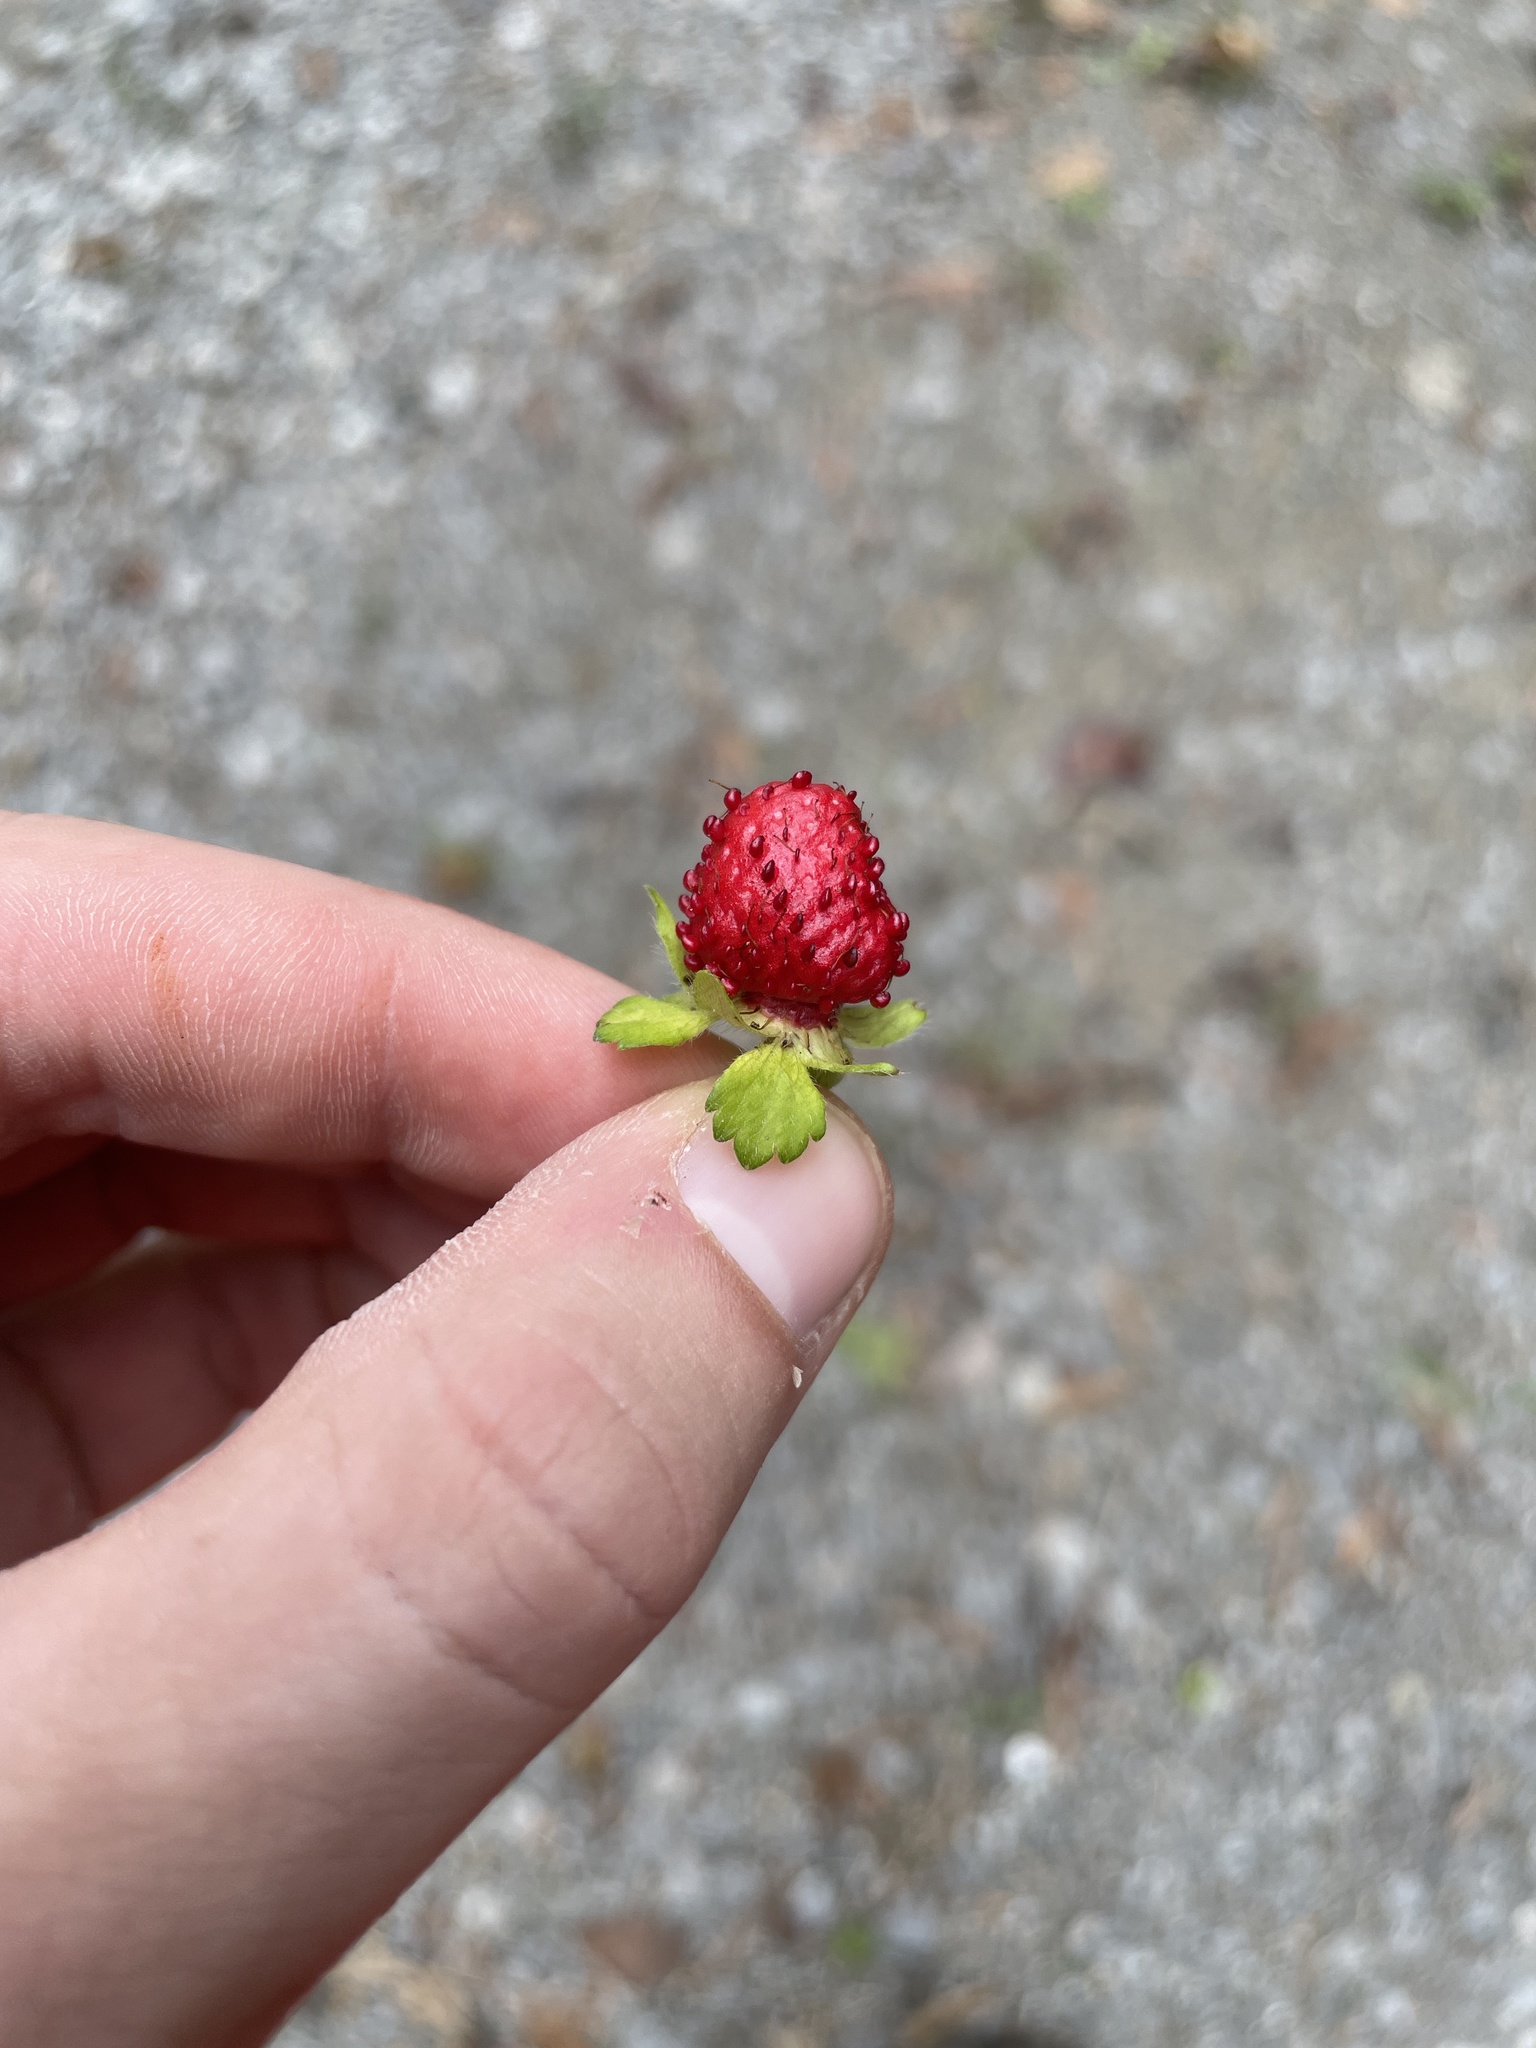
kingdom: Plantae
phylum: Tracheophyta
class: Magnoliopsida
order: Rosales
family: Rosaceae
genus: Potentilla
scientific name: Potentilla indica
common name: Yellow-flowered strawberry
